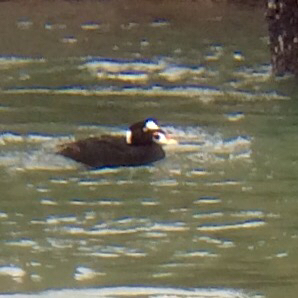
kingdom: Animalia
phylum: Chordata
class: Aves
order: Anseriformes
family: Anatidae
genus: Melanitta
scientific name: Melanitta perspicillata
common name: Surf scoter
